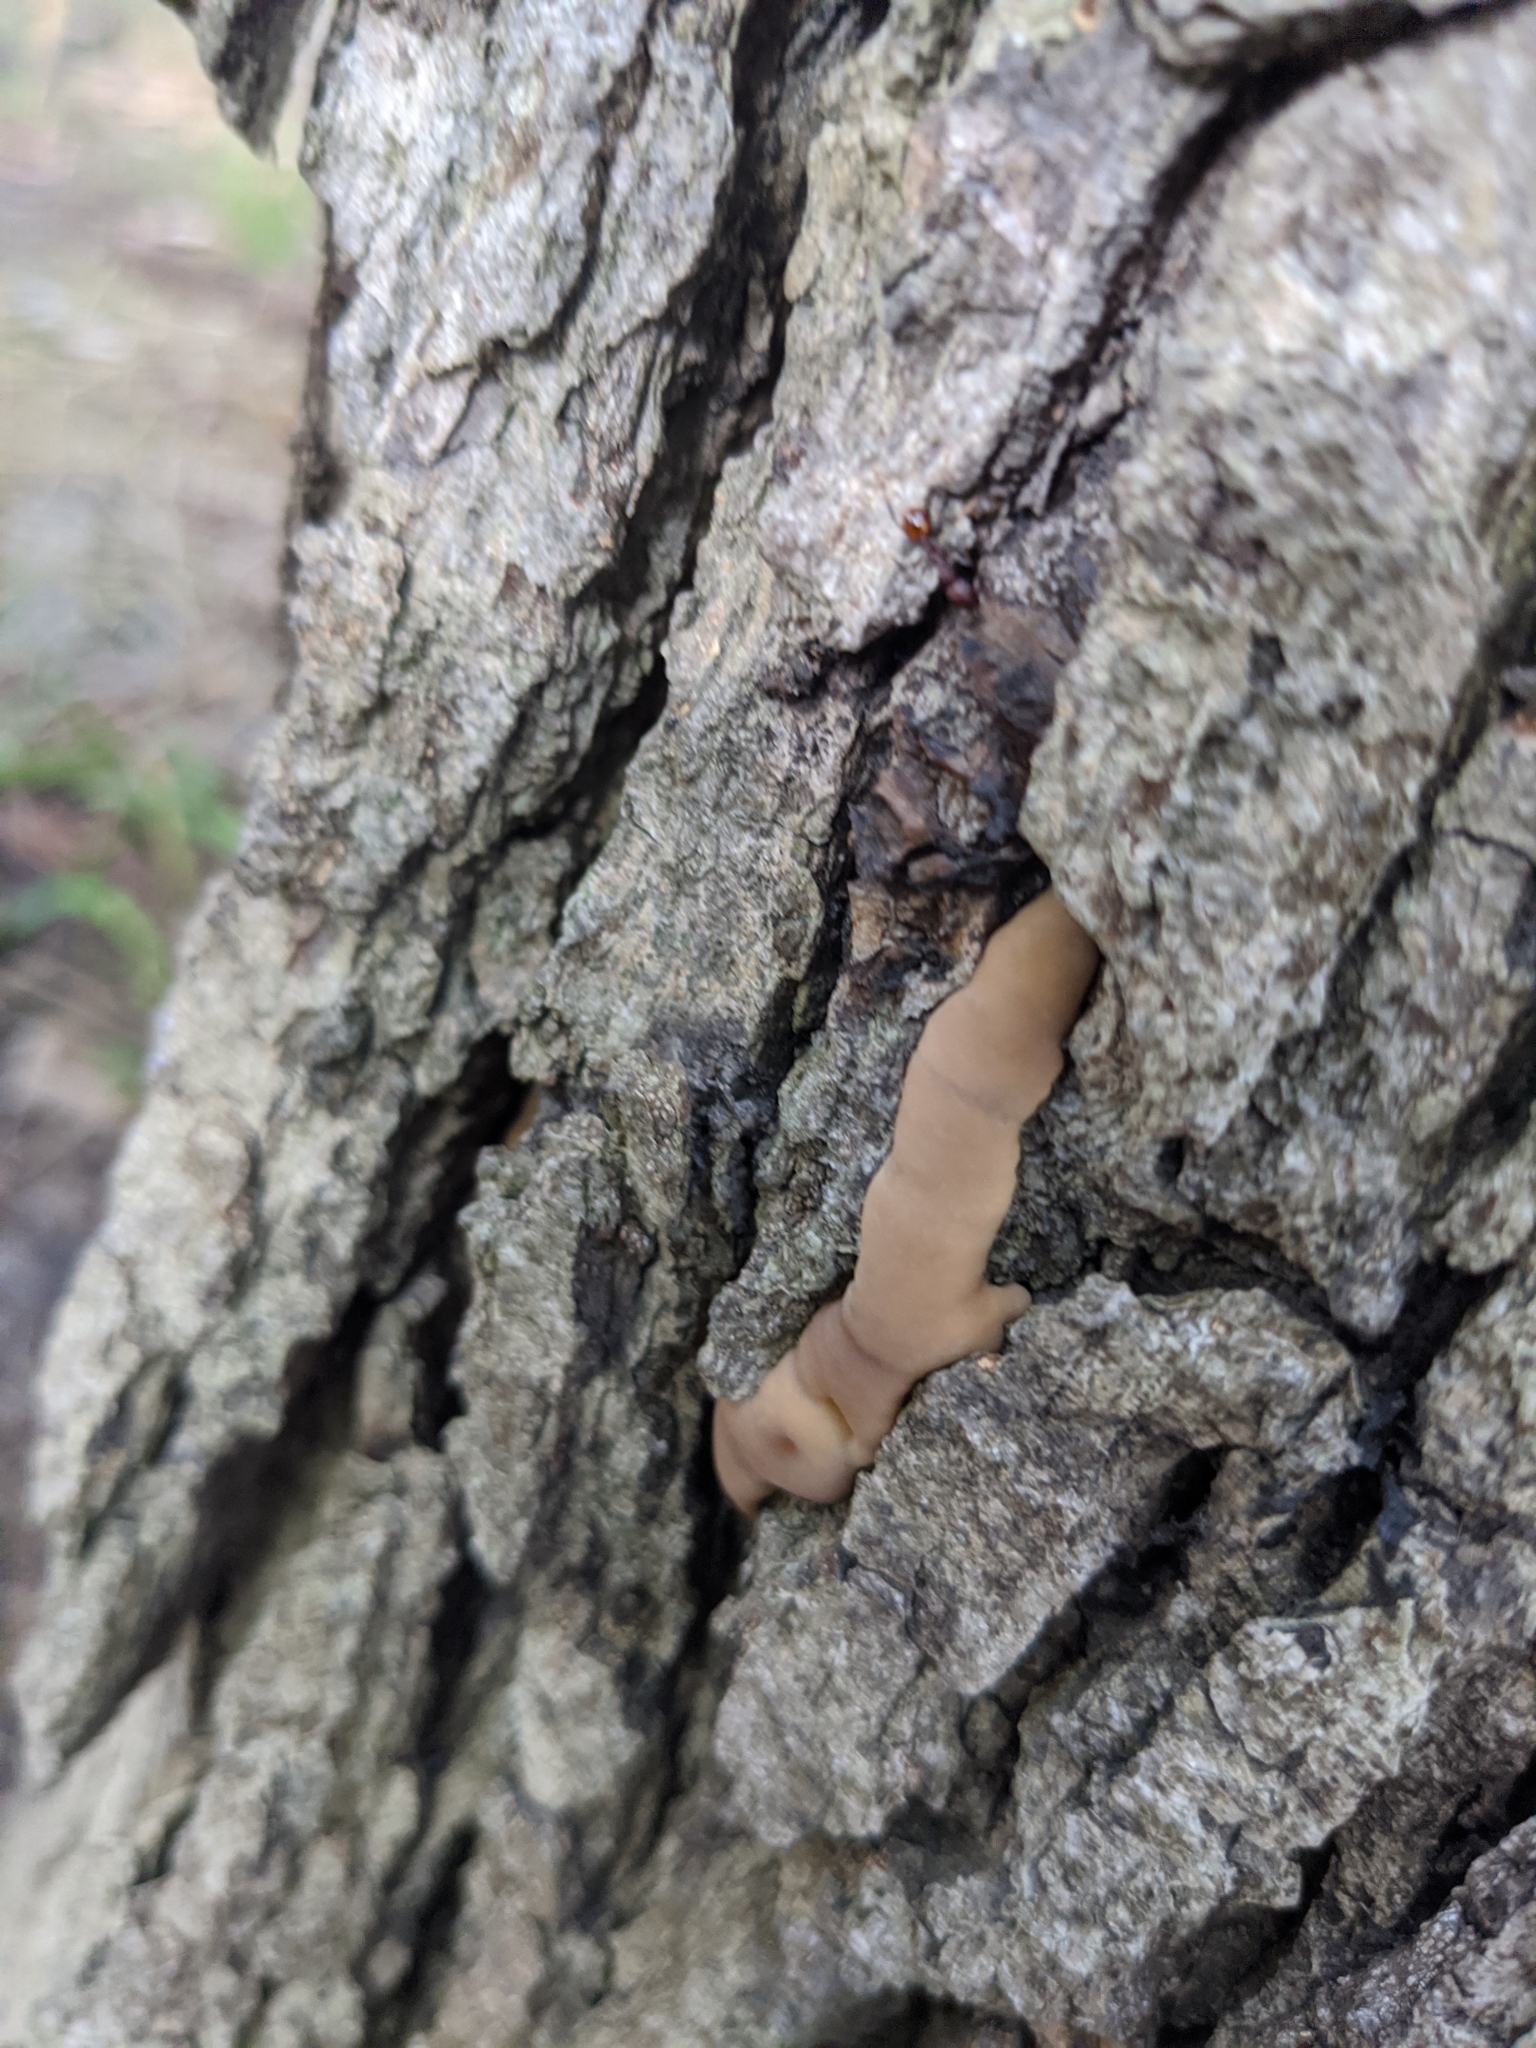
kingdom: Fungi
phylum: Basidiomycota
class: Agaricomycetes
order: Polyporales
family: Fomitopsidaceae
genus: Niveoporofomes
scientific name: Niveoporofomes spraguei
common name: Green cheese polypore
